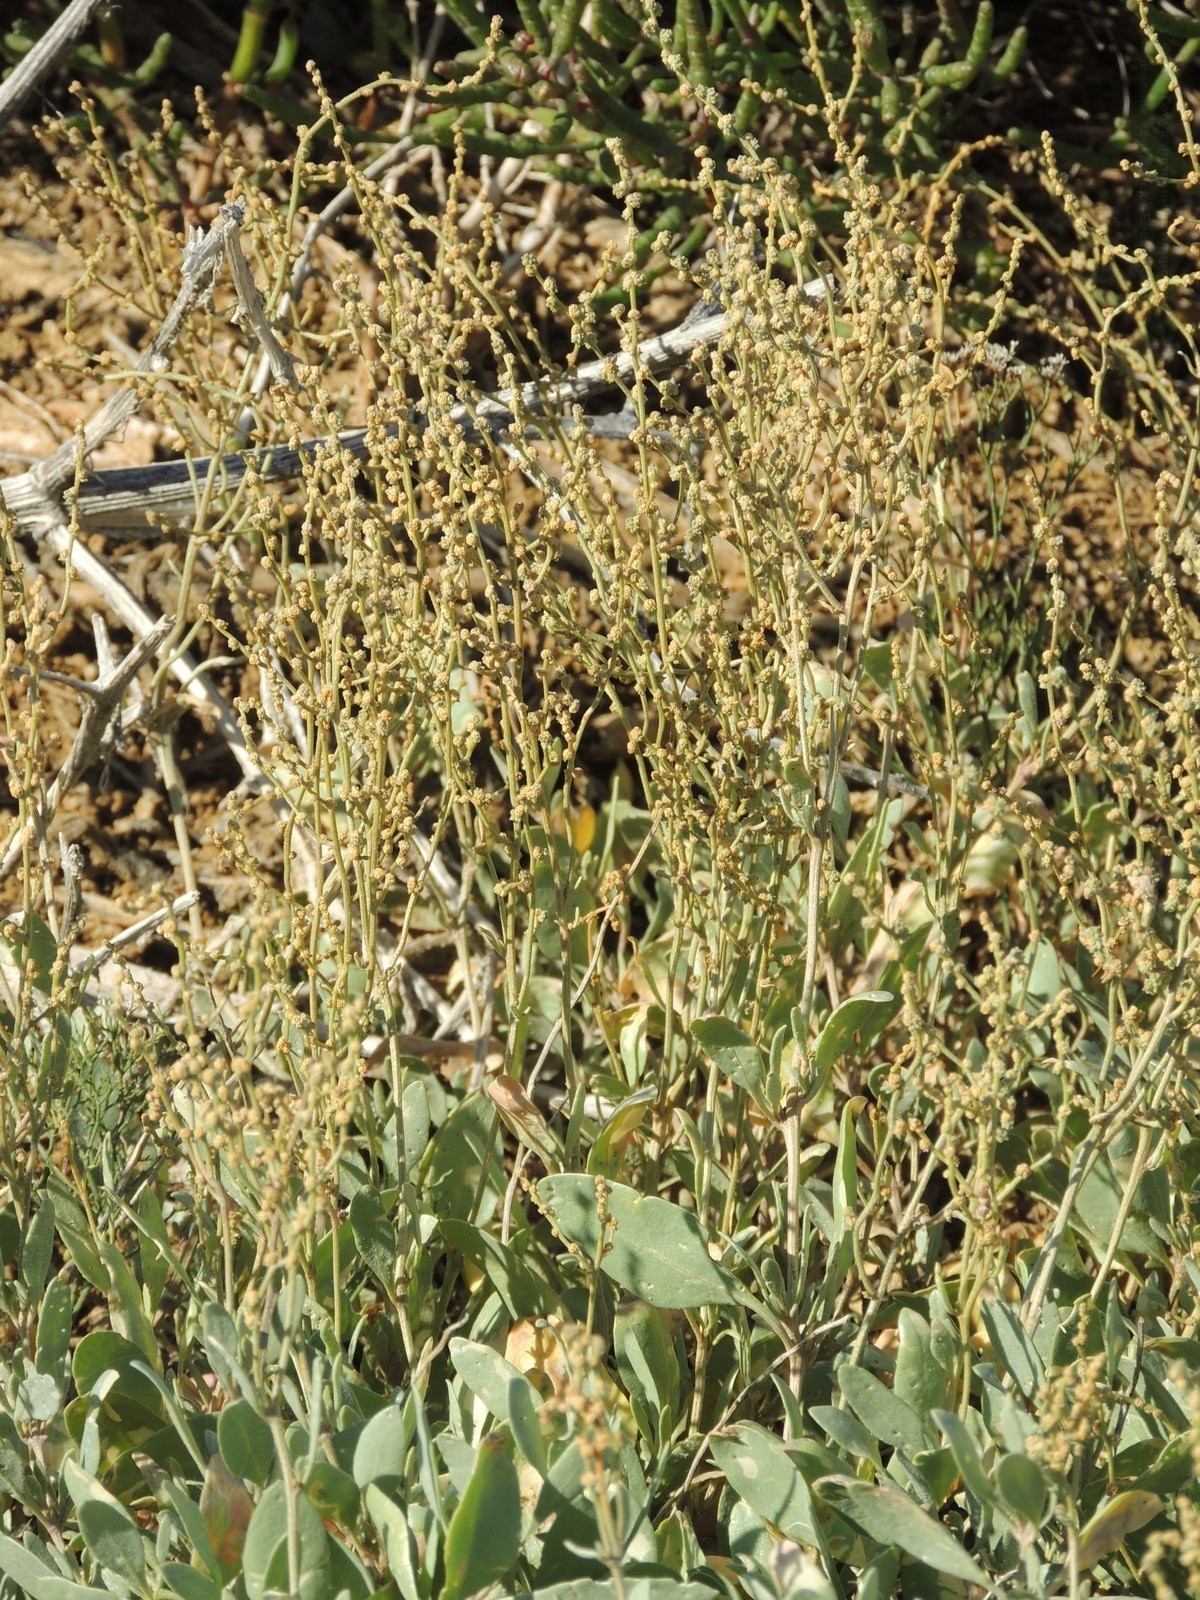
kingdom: Plantae
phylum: Tracheophyta
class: Magnoliopsida
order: Caryophyllales
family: Amaranthaceae
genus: Halimione
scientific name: Halimione verrucifera
